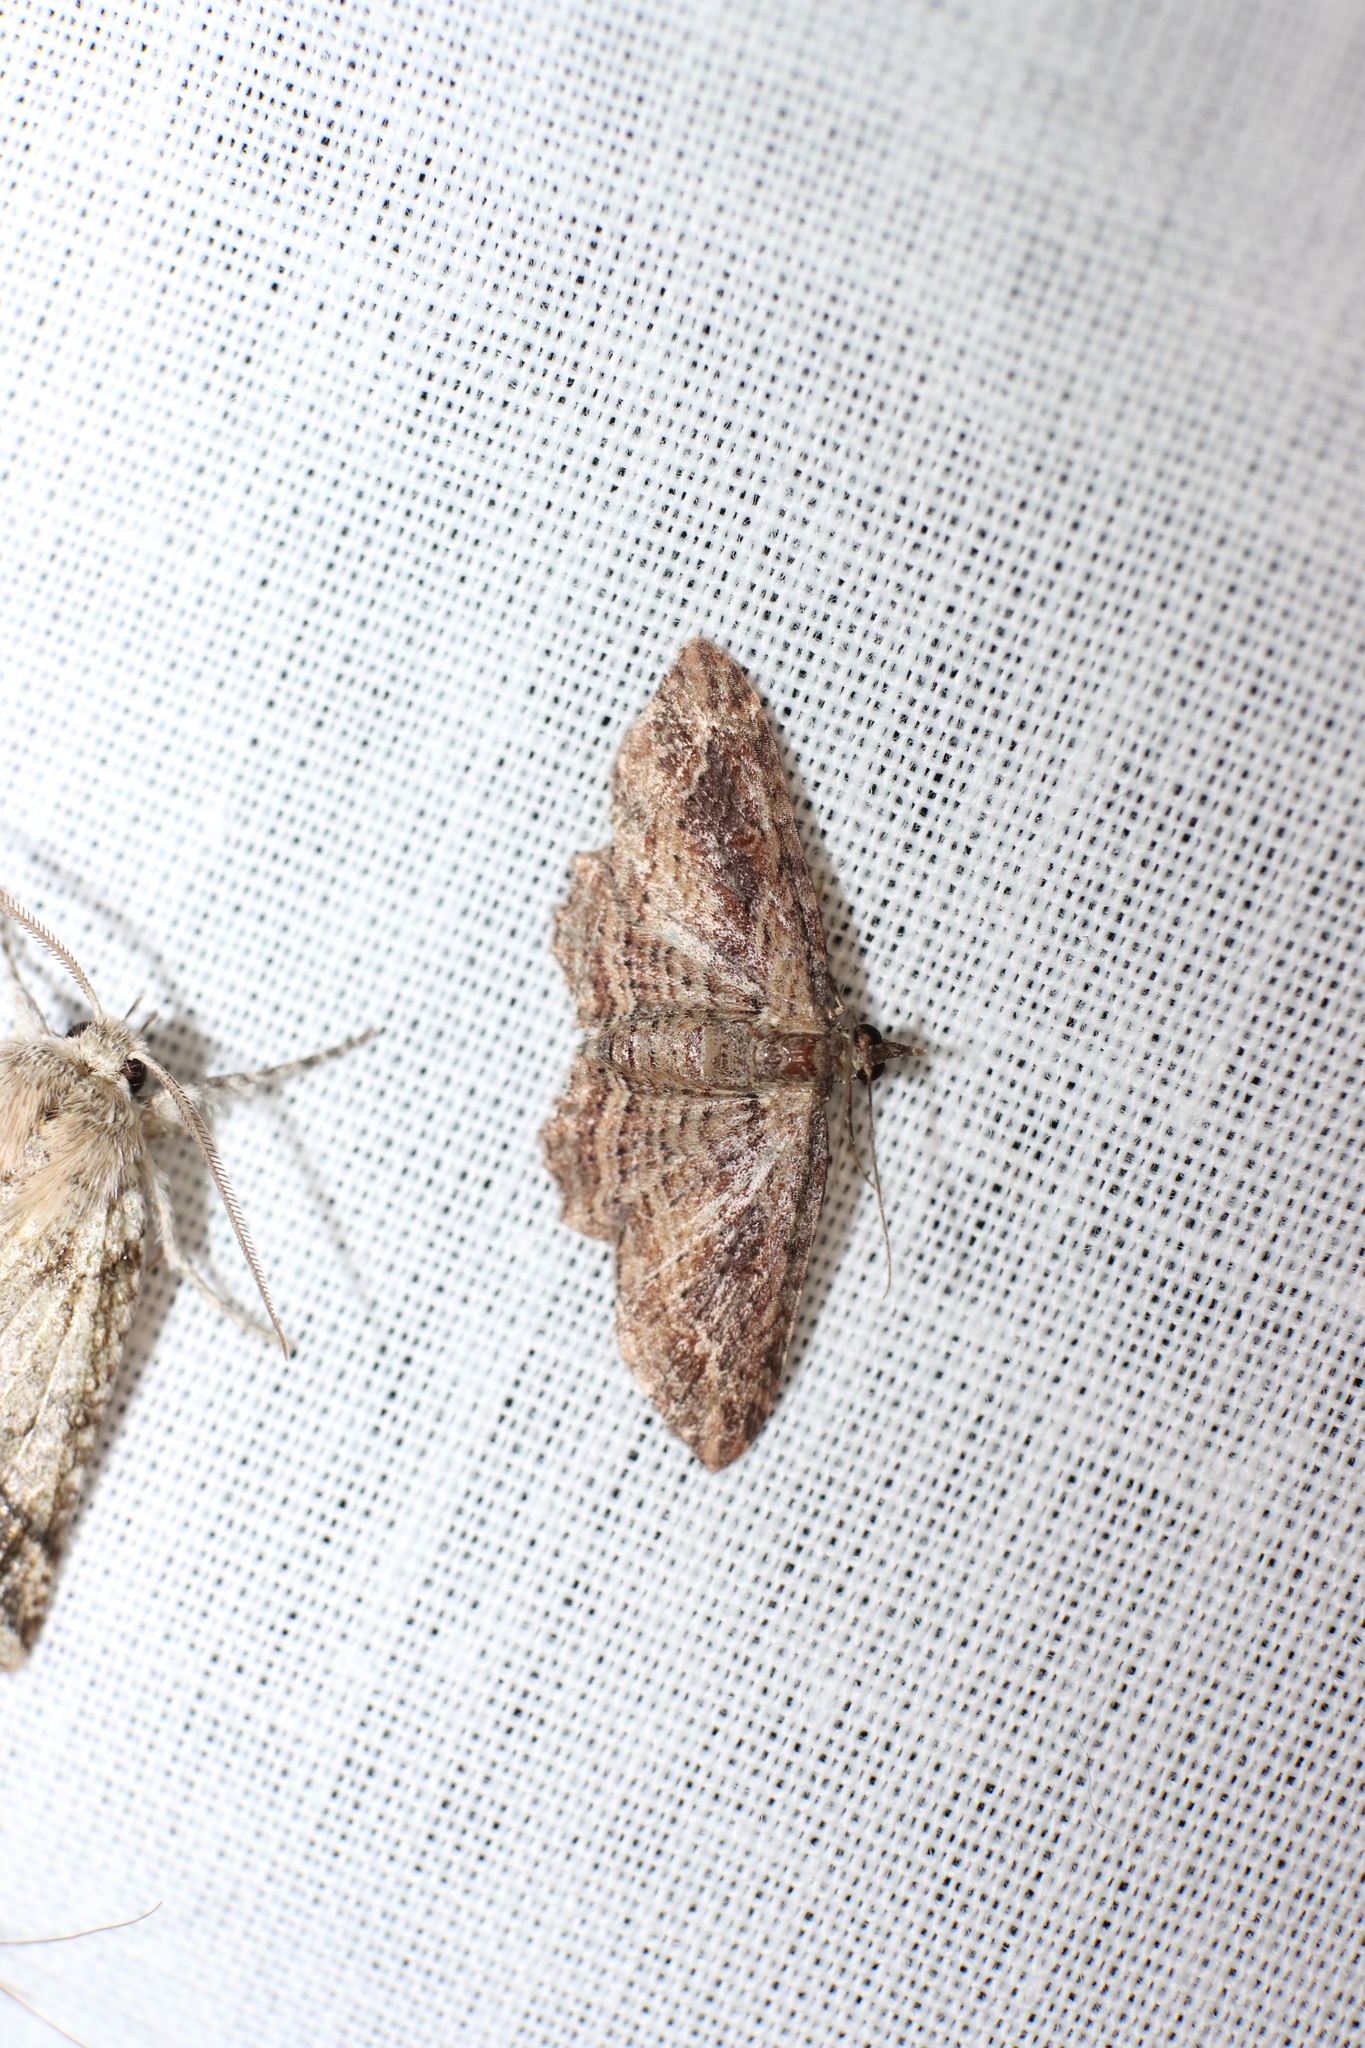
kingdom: Animalia
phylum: Arthropoda
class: Insecta
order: Lepidoptera
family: Geometridae
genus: Chloroclystis
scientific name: Chloroclystis filata
